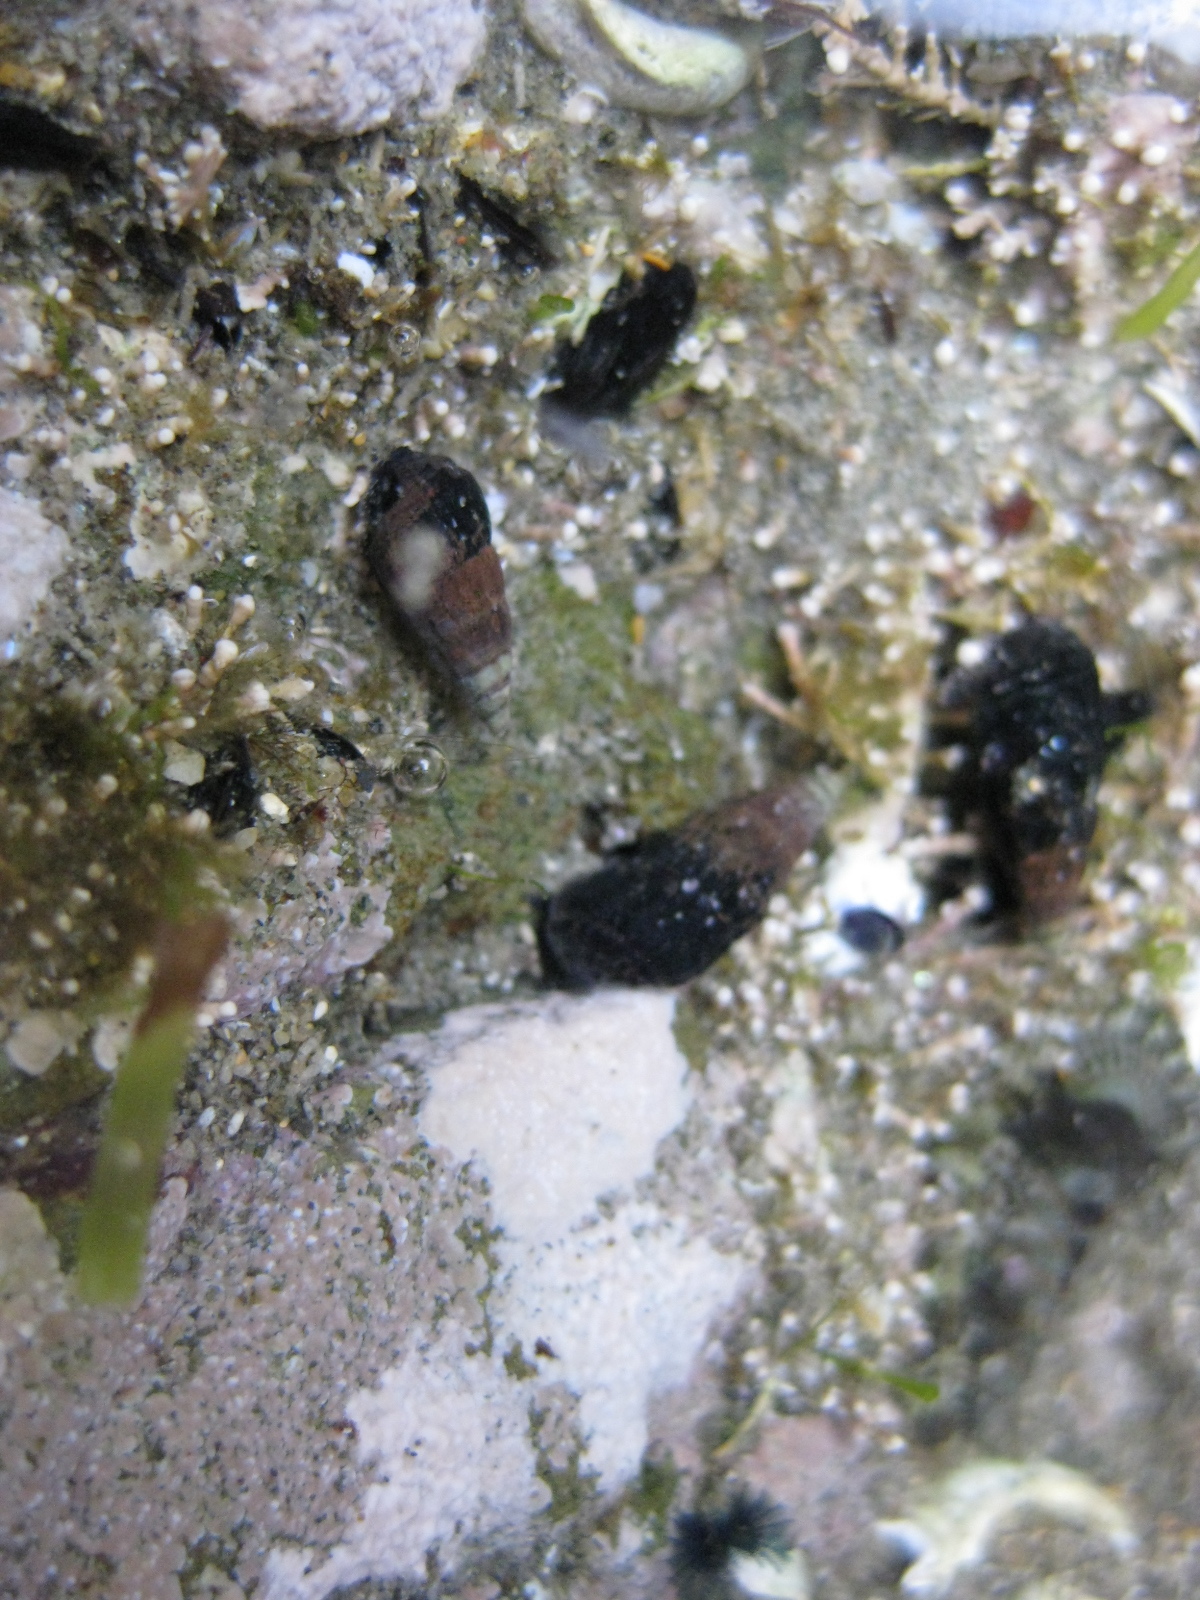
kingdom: Animalia
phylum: Mollusca
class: Gastropoda
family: Batillariidae
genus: Zeacumantus
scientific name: Zeacumantus subcarinatus
